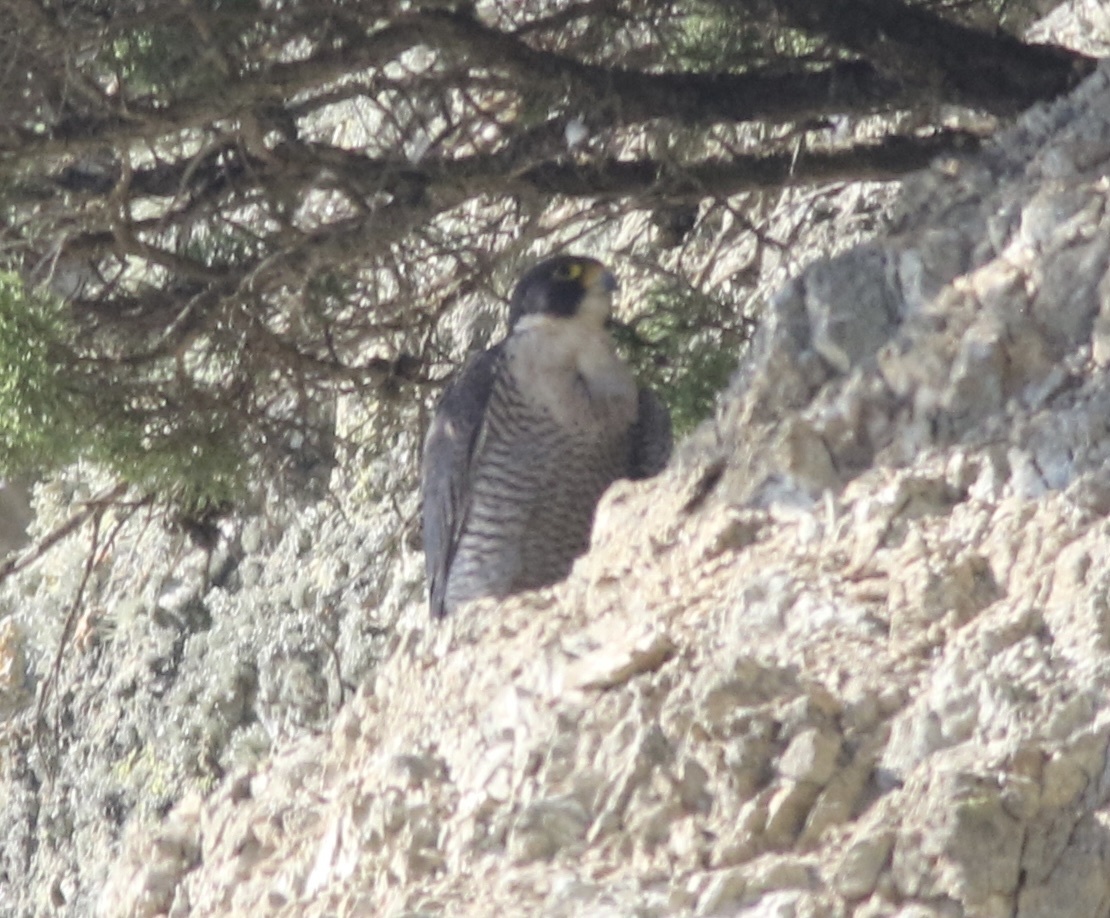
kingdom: Animalia
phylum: Chordata
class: Aves
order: Falconiformes
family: Falconidae
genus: Falco
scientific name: Falco peregrinus
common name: Peregrine falcon
